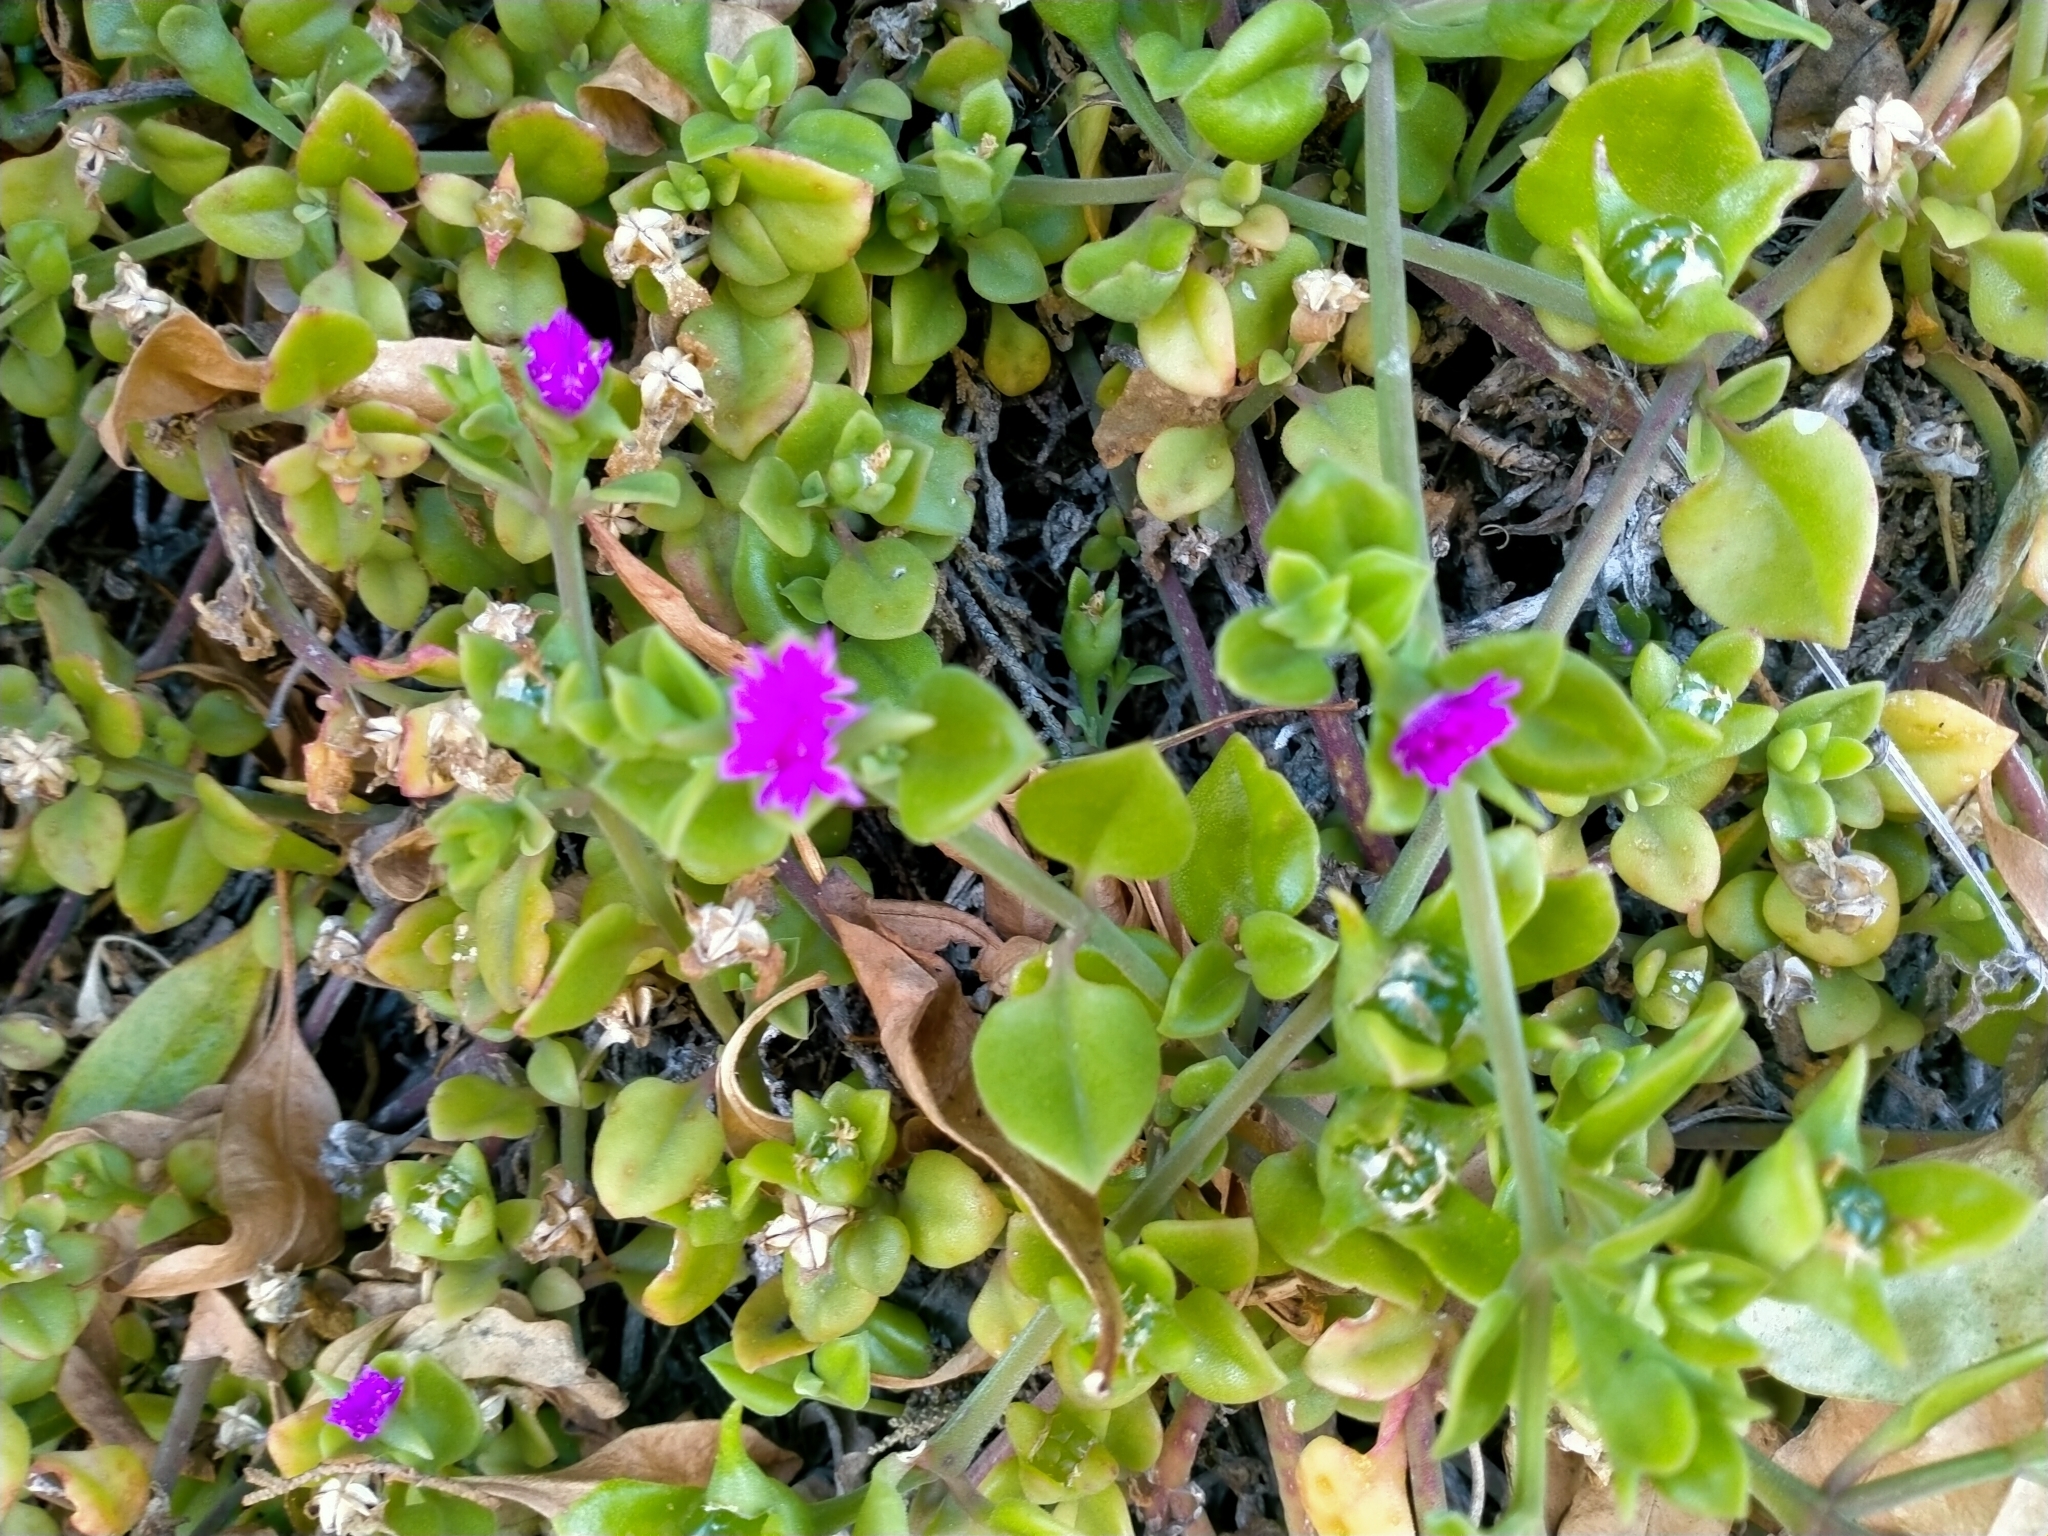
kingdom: Plantae
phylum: Tracheophyta
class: Magnoliopsida
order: Caryophyllales
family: Aizoaceae
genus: Mesembryanthemum
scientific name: Mesembryanthemum cordifolium
